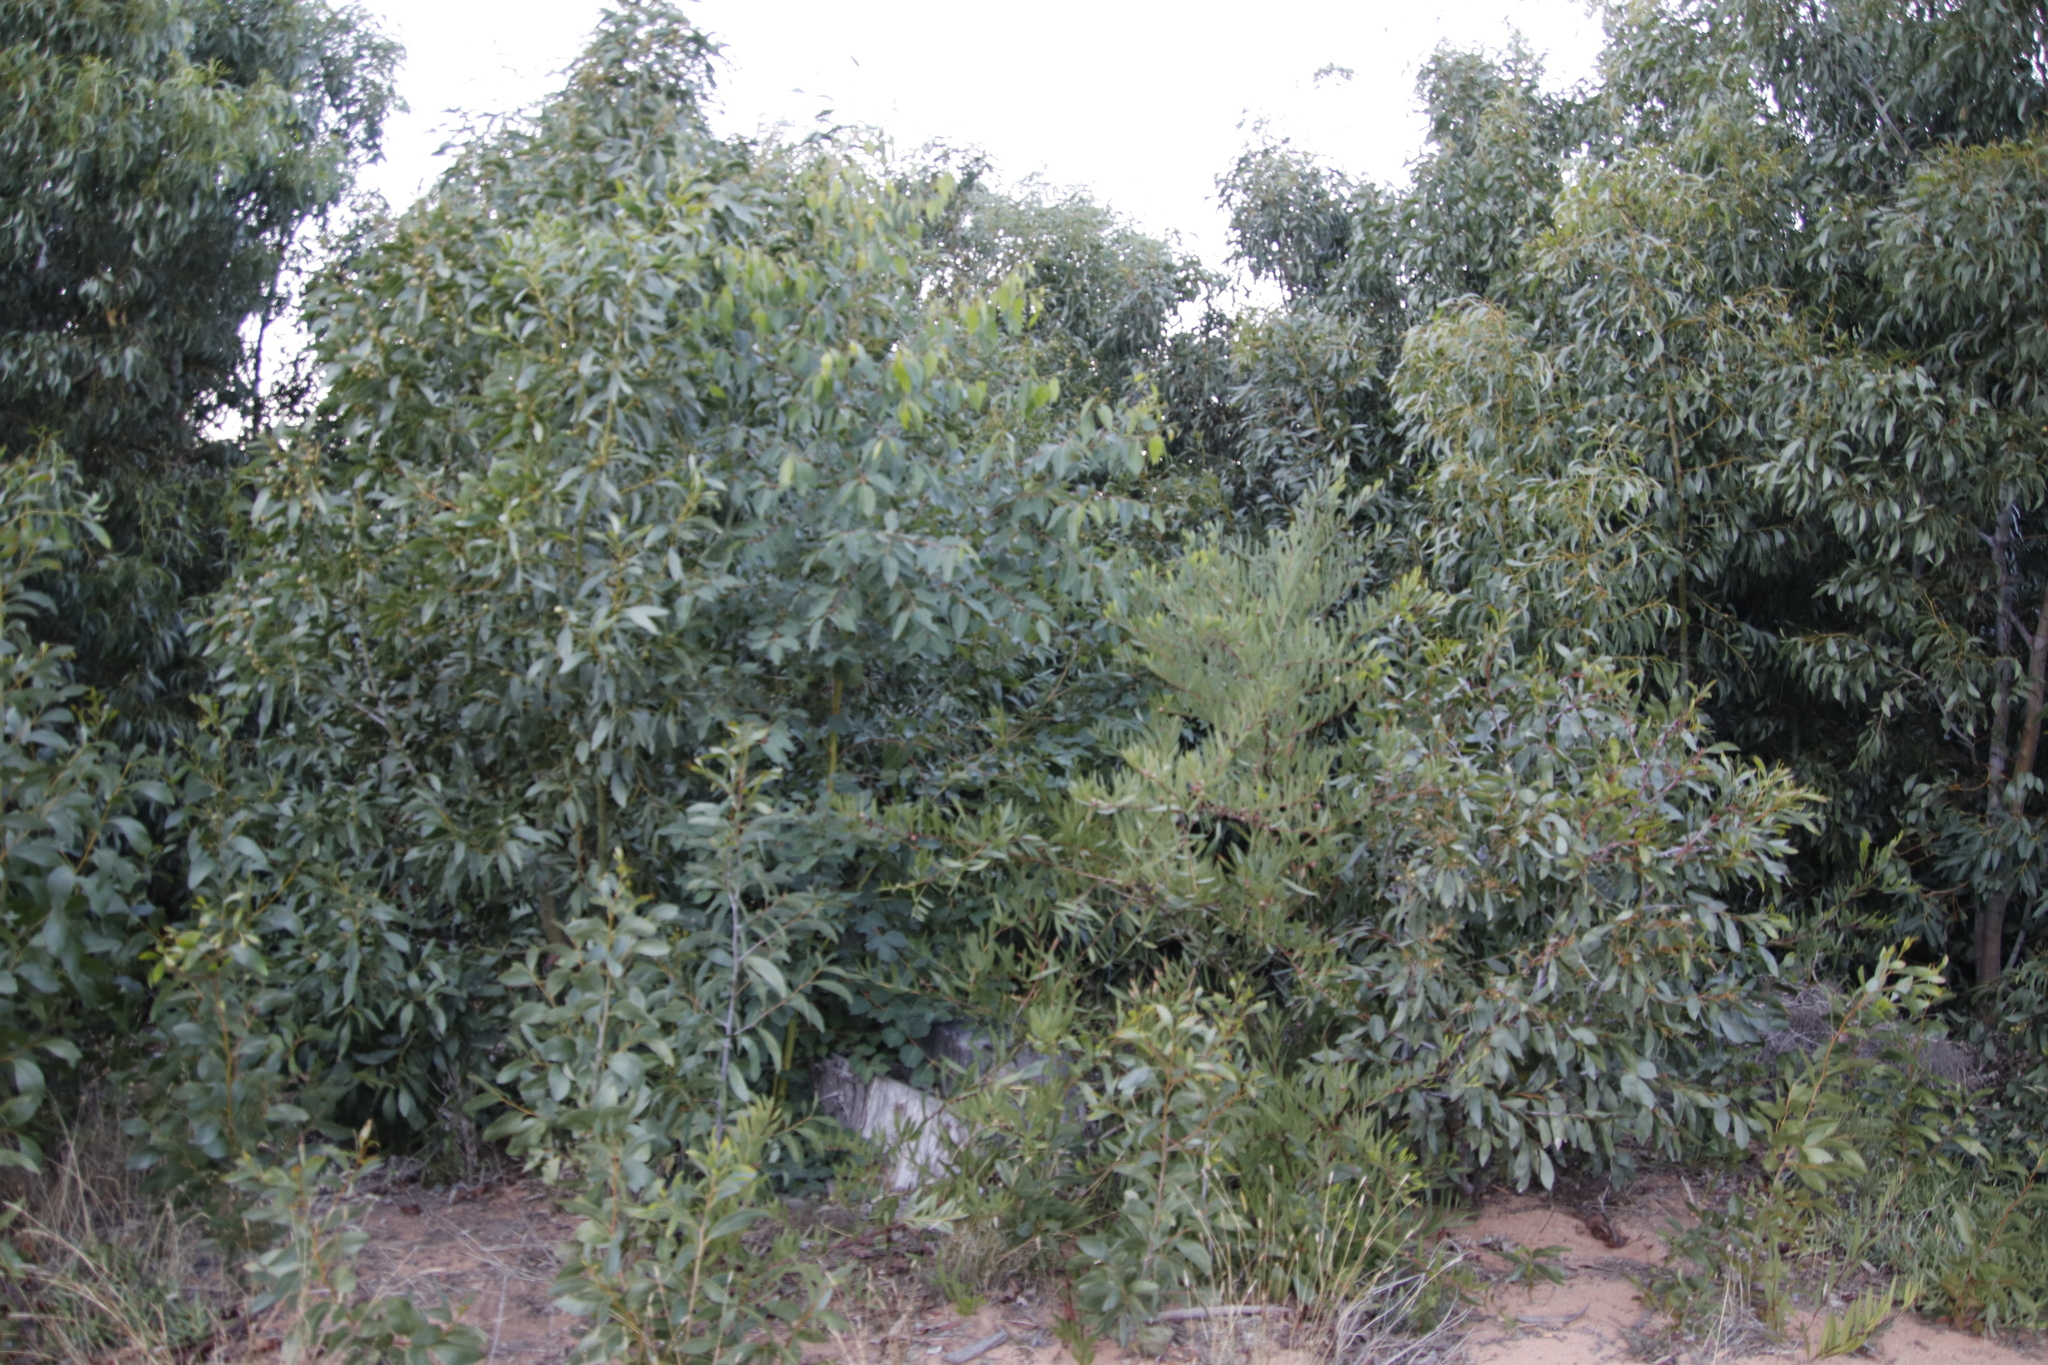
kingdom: Plantae
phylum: Tracheophyta
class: Magnoliopsida
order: Fabales
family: Fabaceae
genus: Acacia
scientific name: Acacia longifolia
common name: Sydney golden wattle
